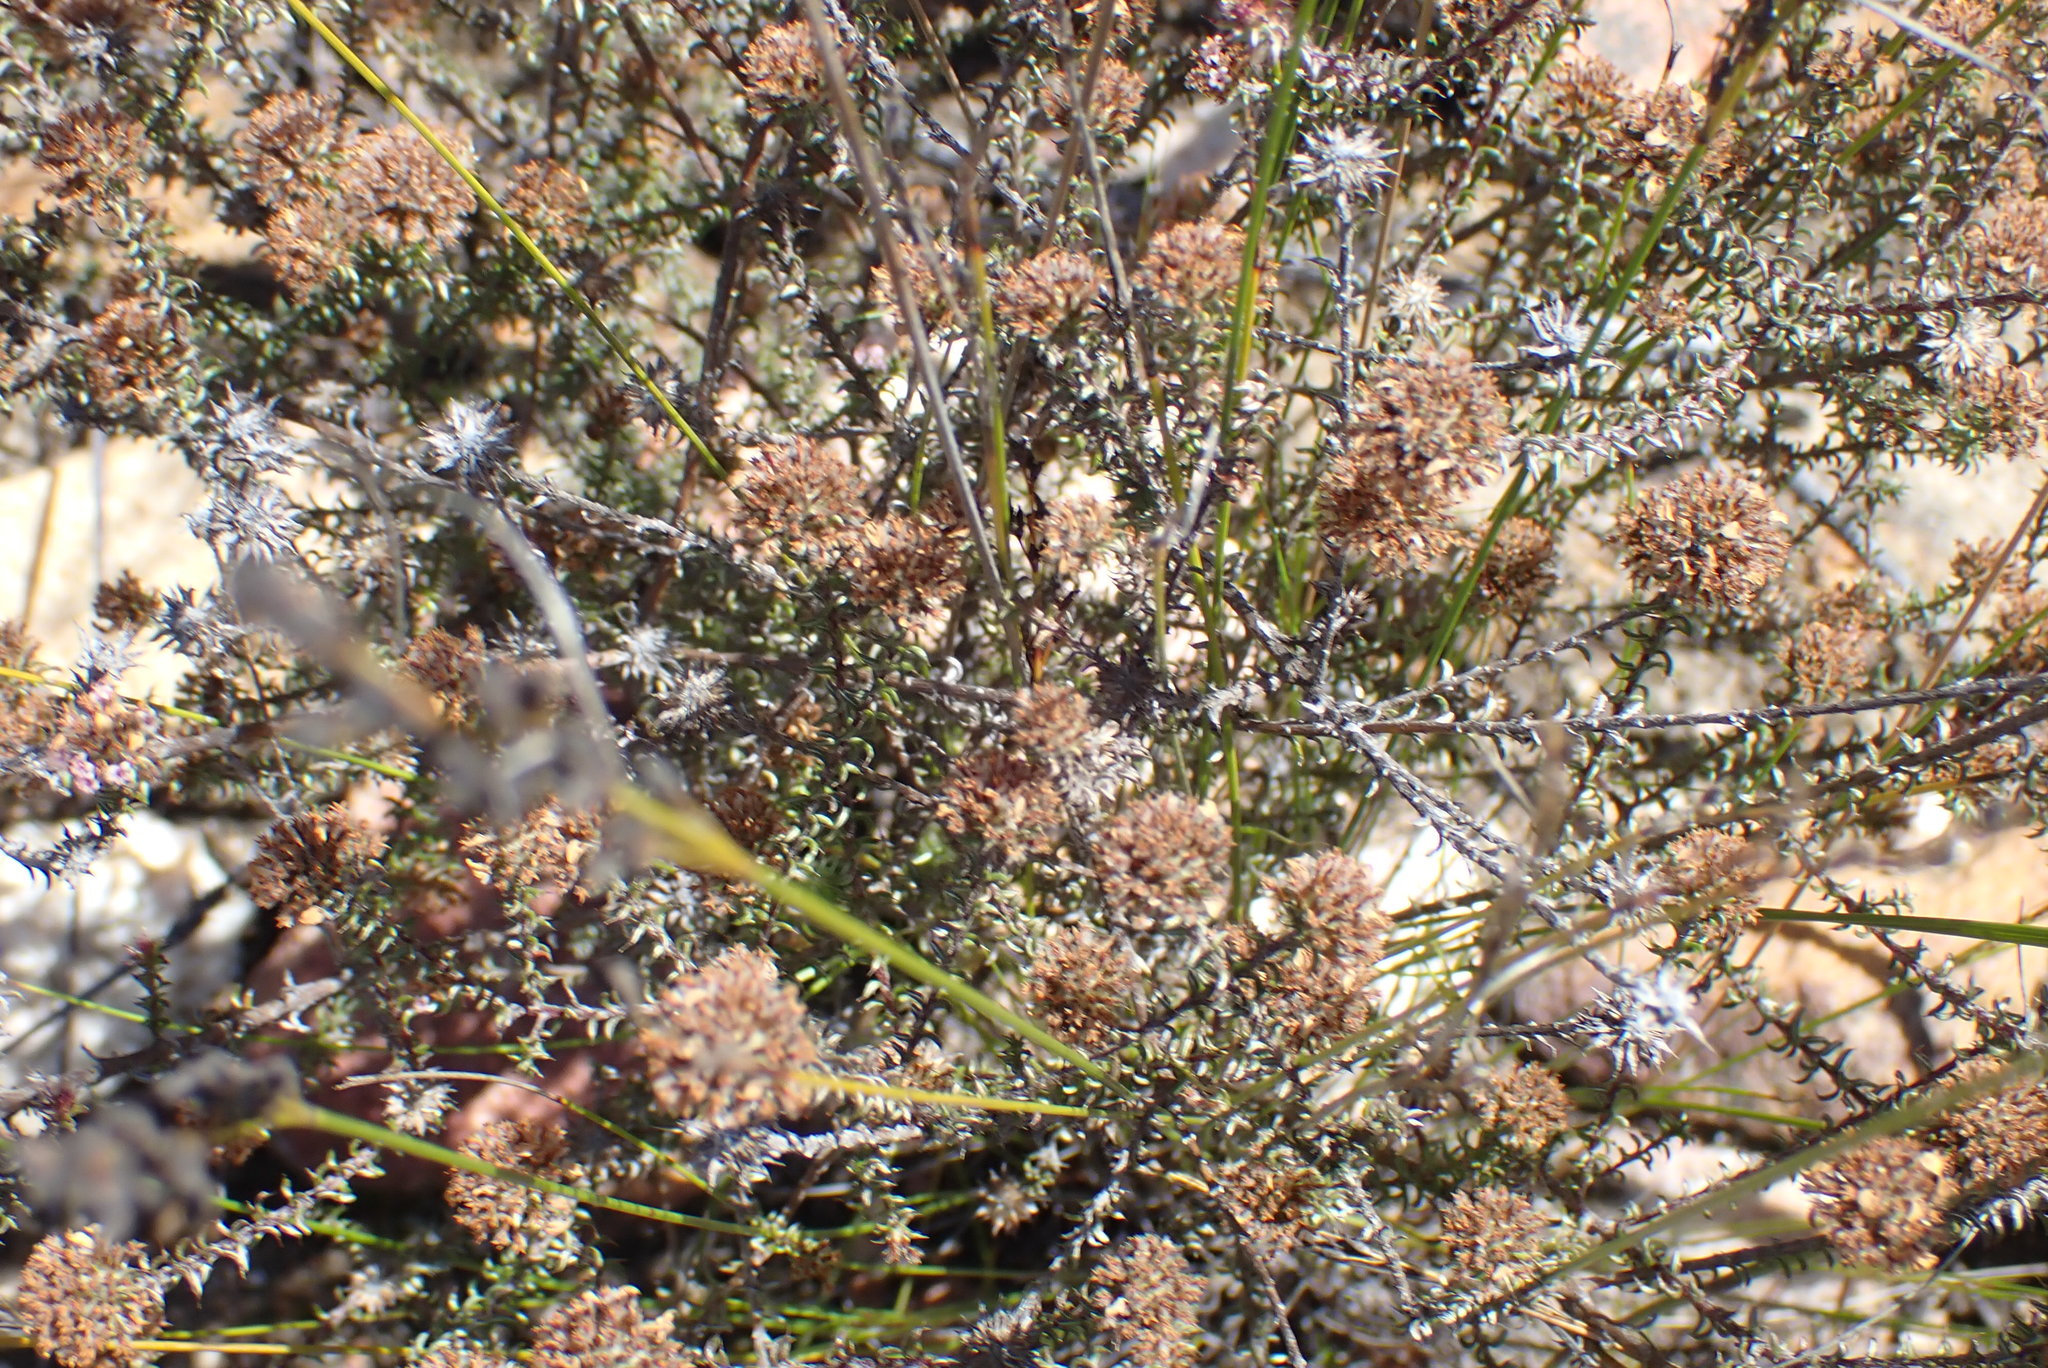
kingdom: Plantae
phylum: Tracheophyta
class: Magnoliopsida
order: Asterales
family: Asteraceae
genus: Disparago
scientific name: Disparago tortilis
